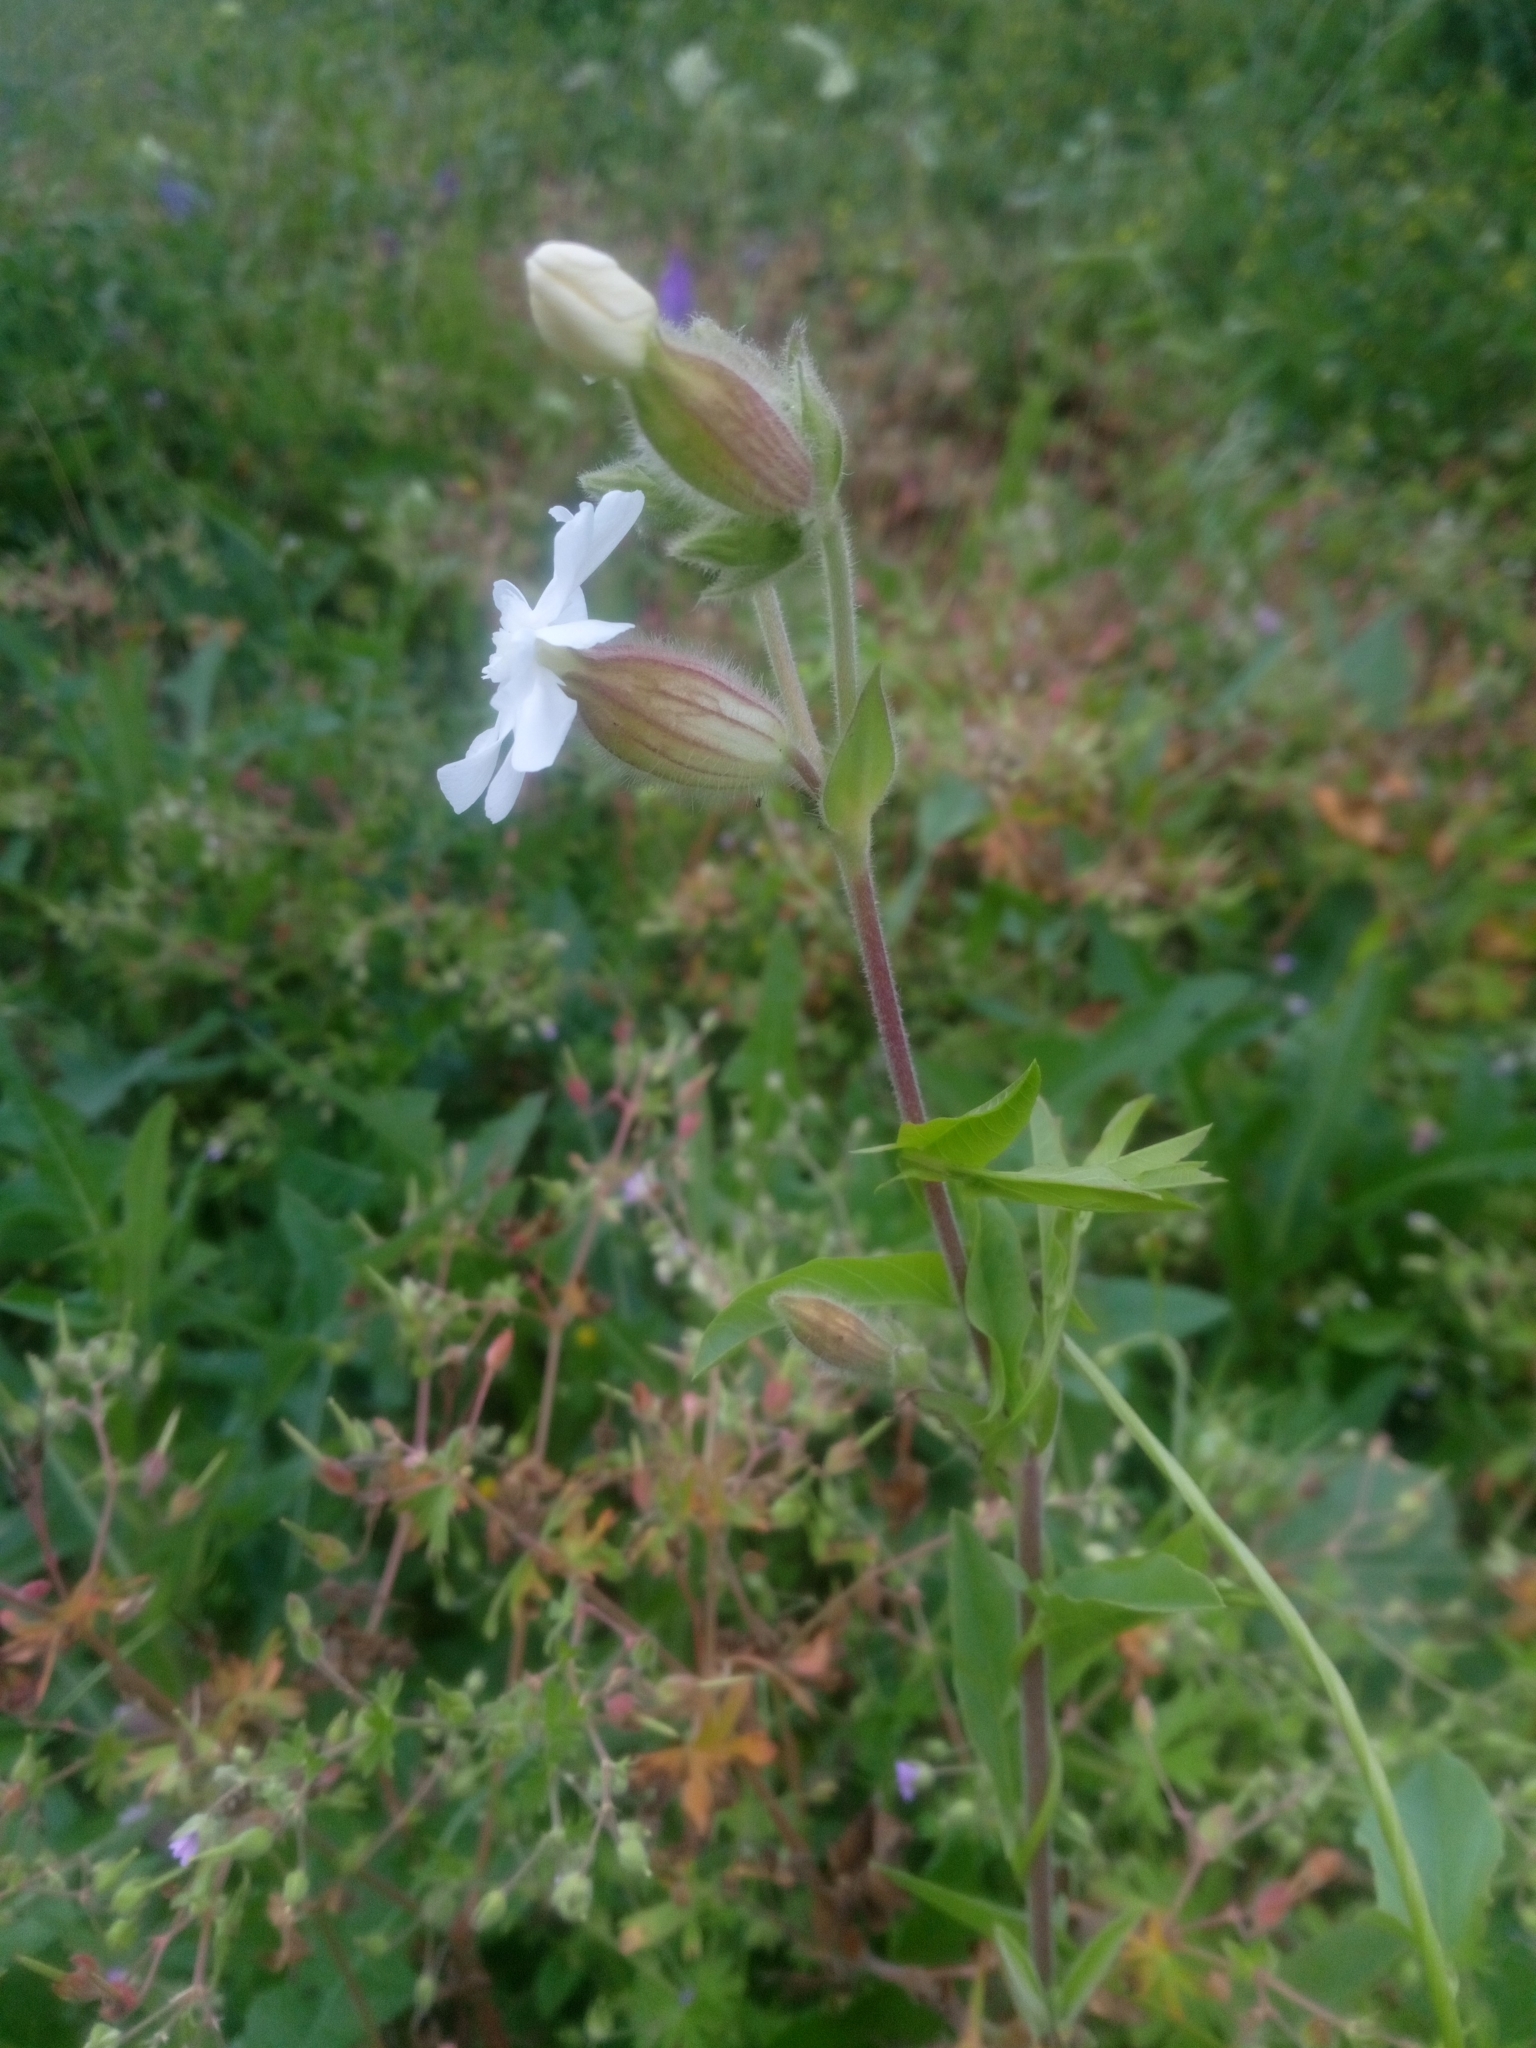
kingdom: Plantae
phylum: Tracheophyta
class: Magnoliopsida
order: Caryophyllales
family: Caryophyllaceae
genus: Silene
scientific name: Silene latifolia
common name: White campion
